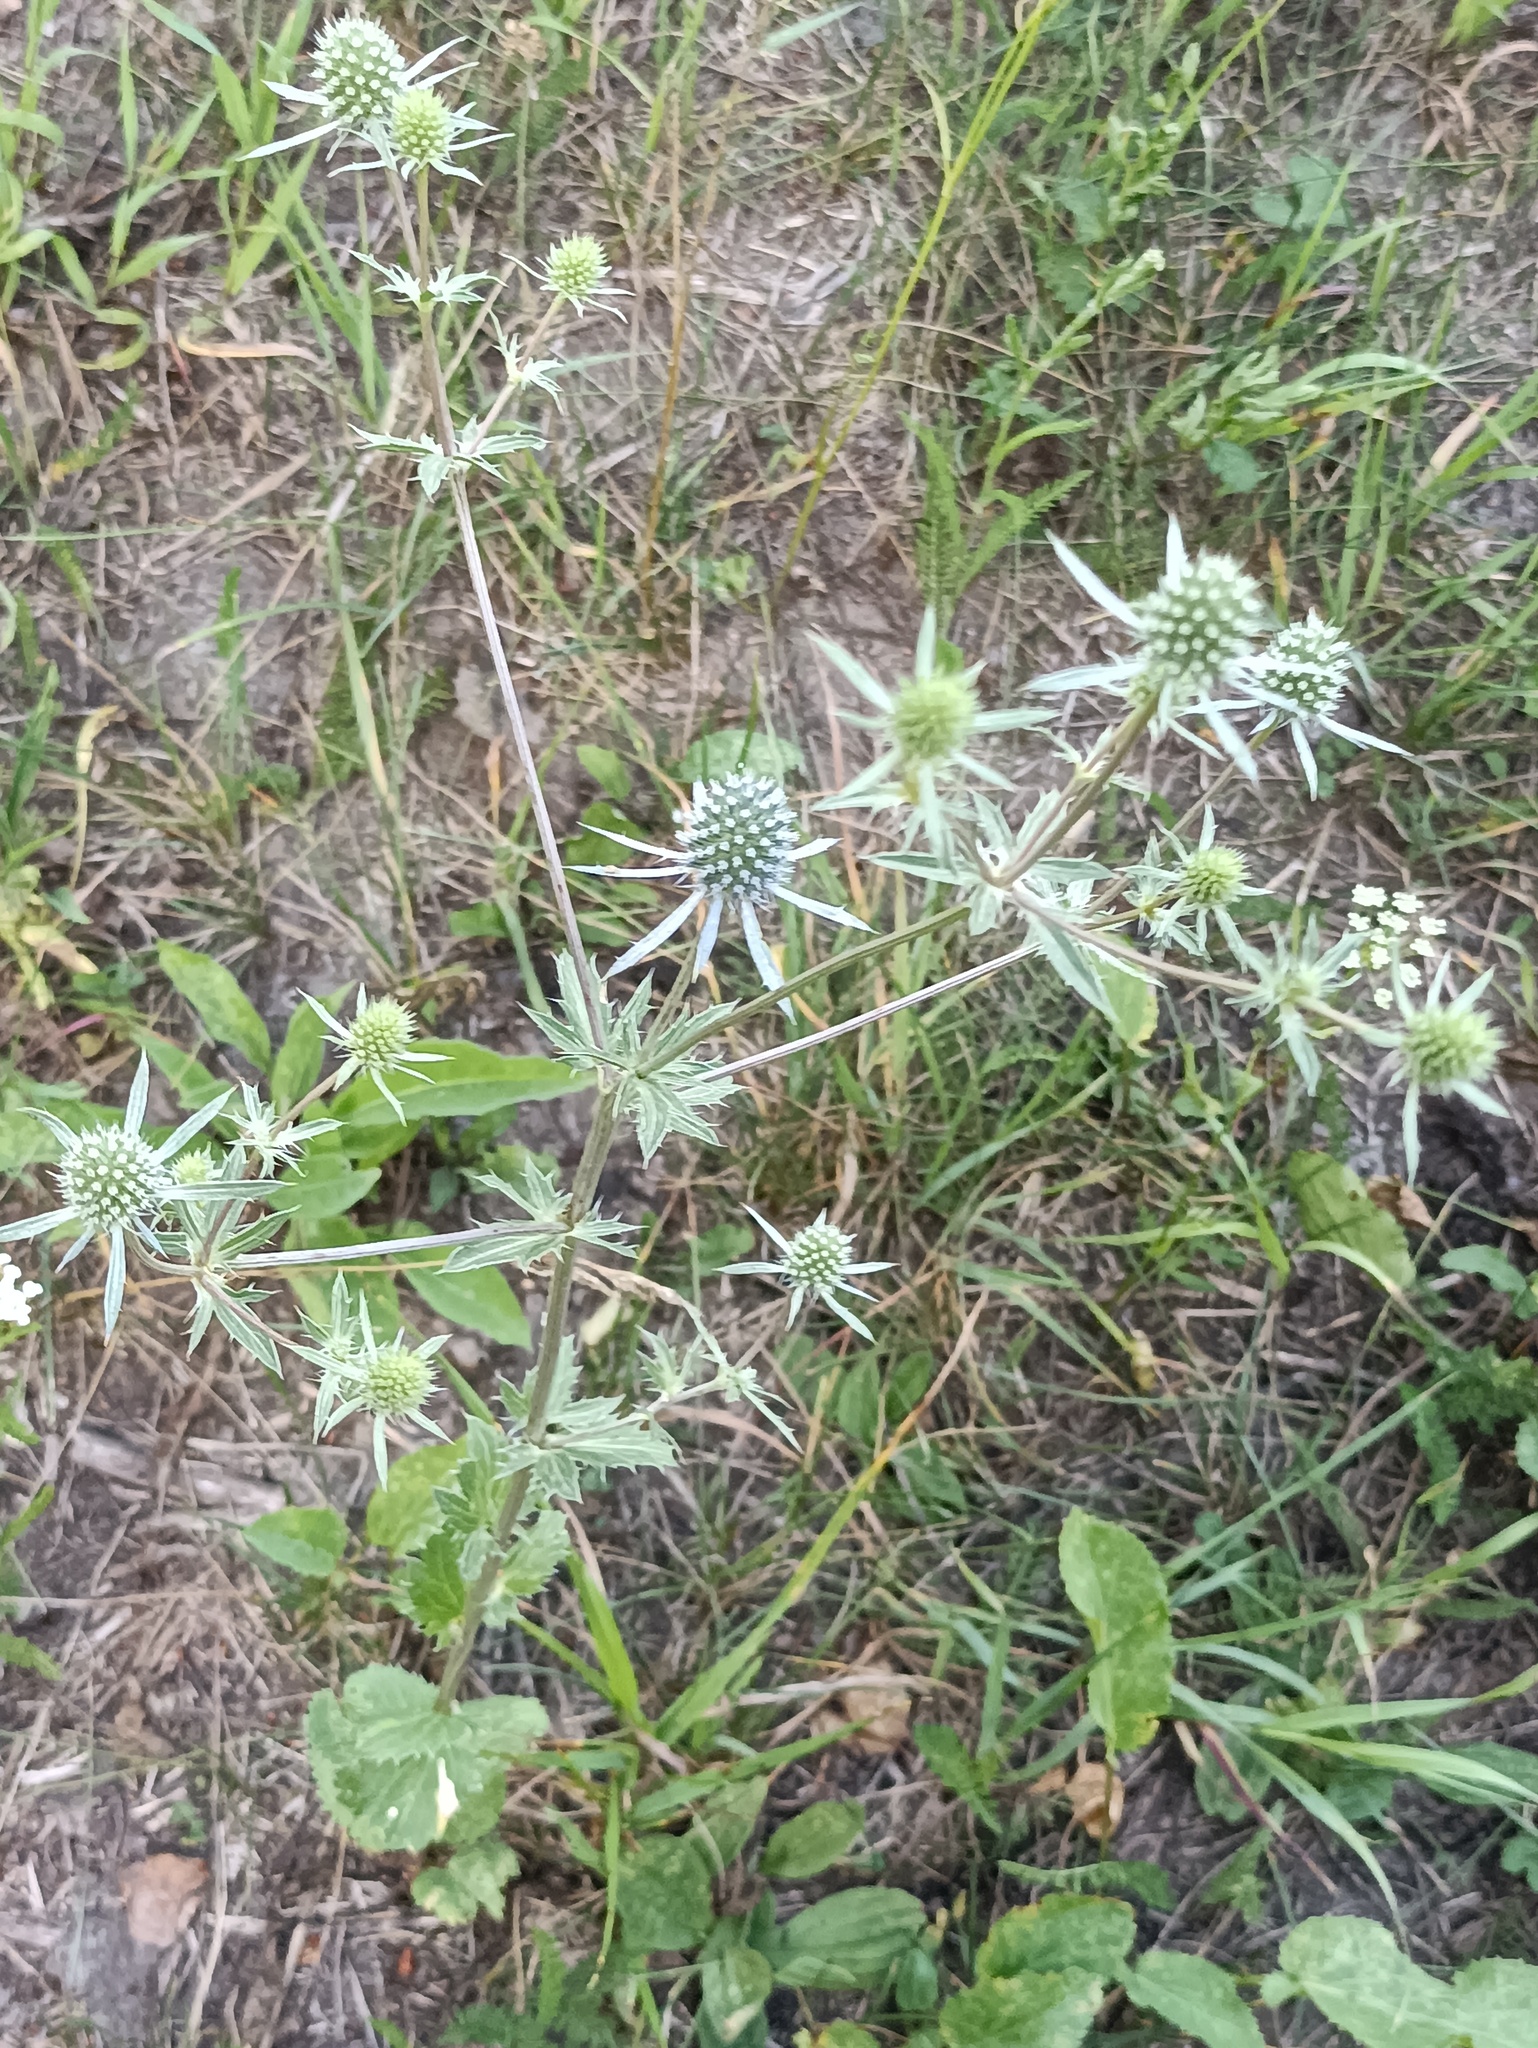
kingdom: Plantae
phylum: Tracheophyta
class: Magnoliopsida
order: Apiales
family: Apiaceae
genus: Eryngium
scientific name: Eryngium planum
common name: Blue eryngo
